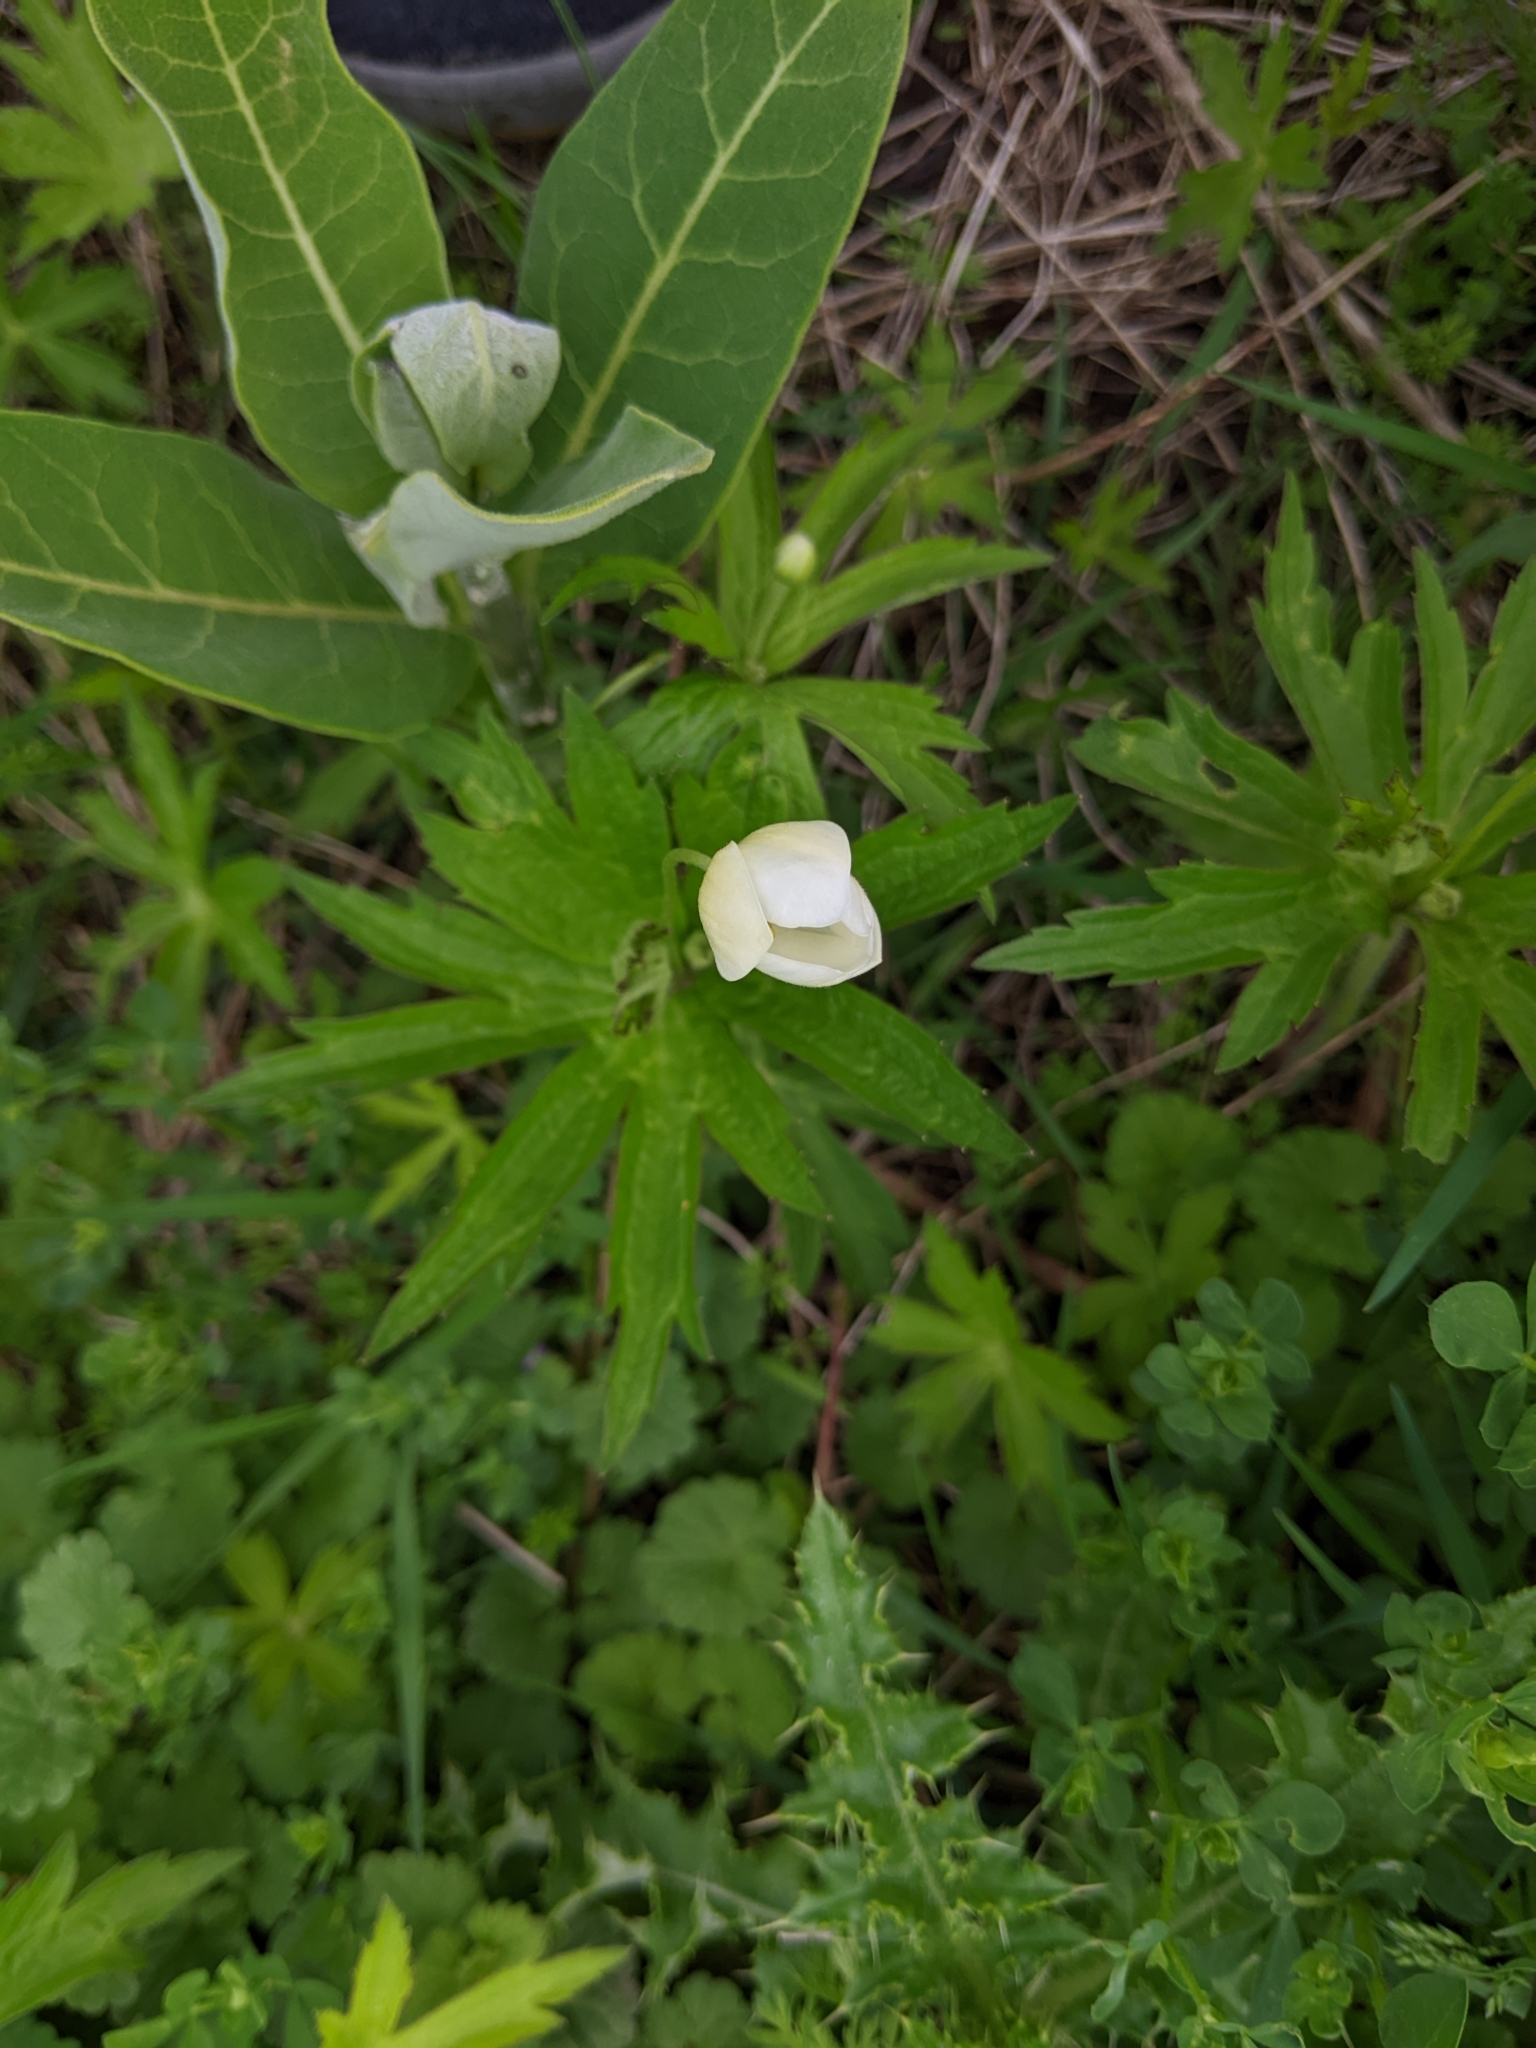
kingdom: Plantae
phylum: Tracheophyta
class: Magnoliopsida
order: Ranunculales
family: Ranunculaceae
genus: Anemonastrum
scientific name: Anemonastrum canadense
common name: Canada anemone
